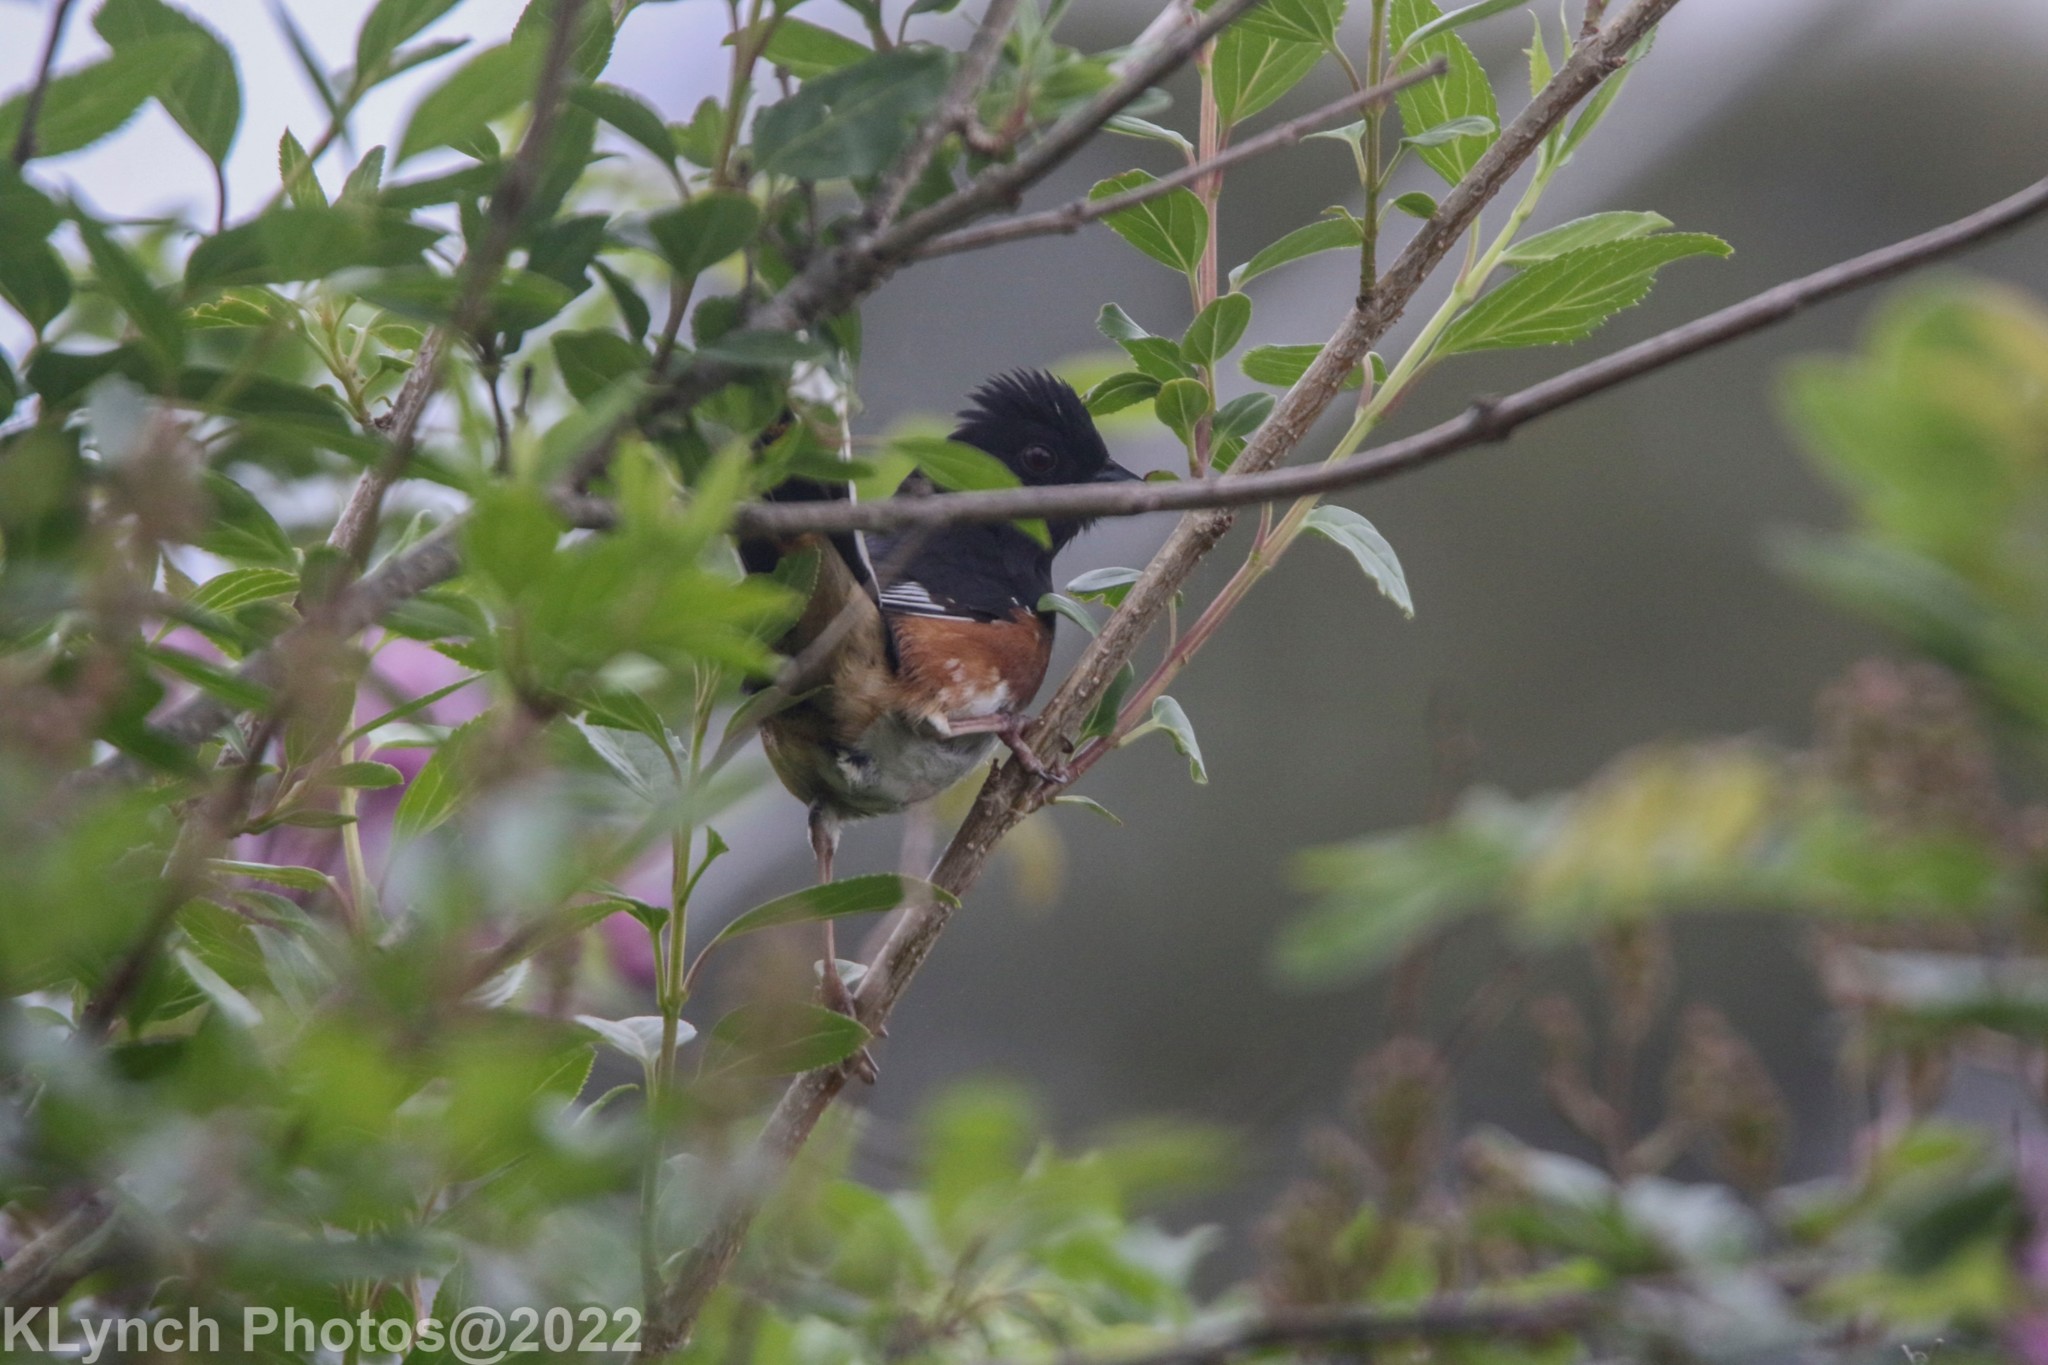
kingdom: Animalia
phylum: Chordata
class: Aves
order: Passeriformes
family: Passerellidae
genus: Pipilo
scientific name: Pipilo erythrophthalmus
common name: Eastern towhee
